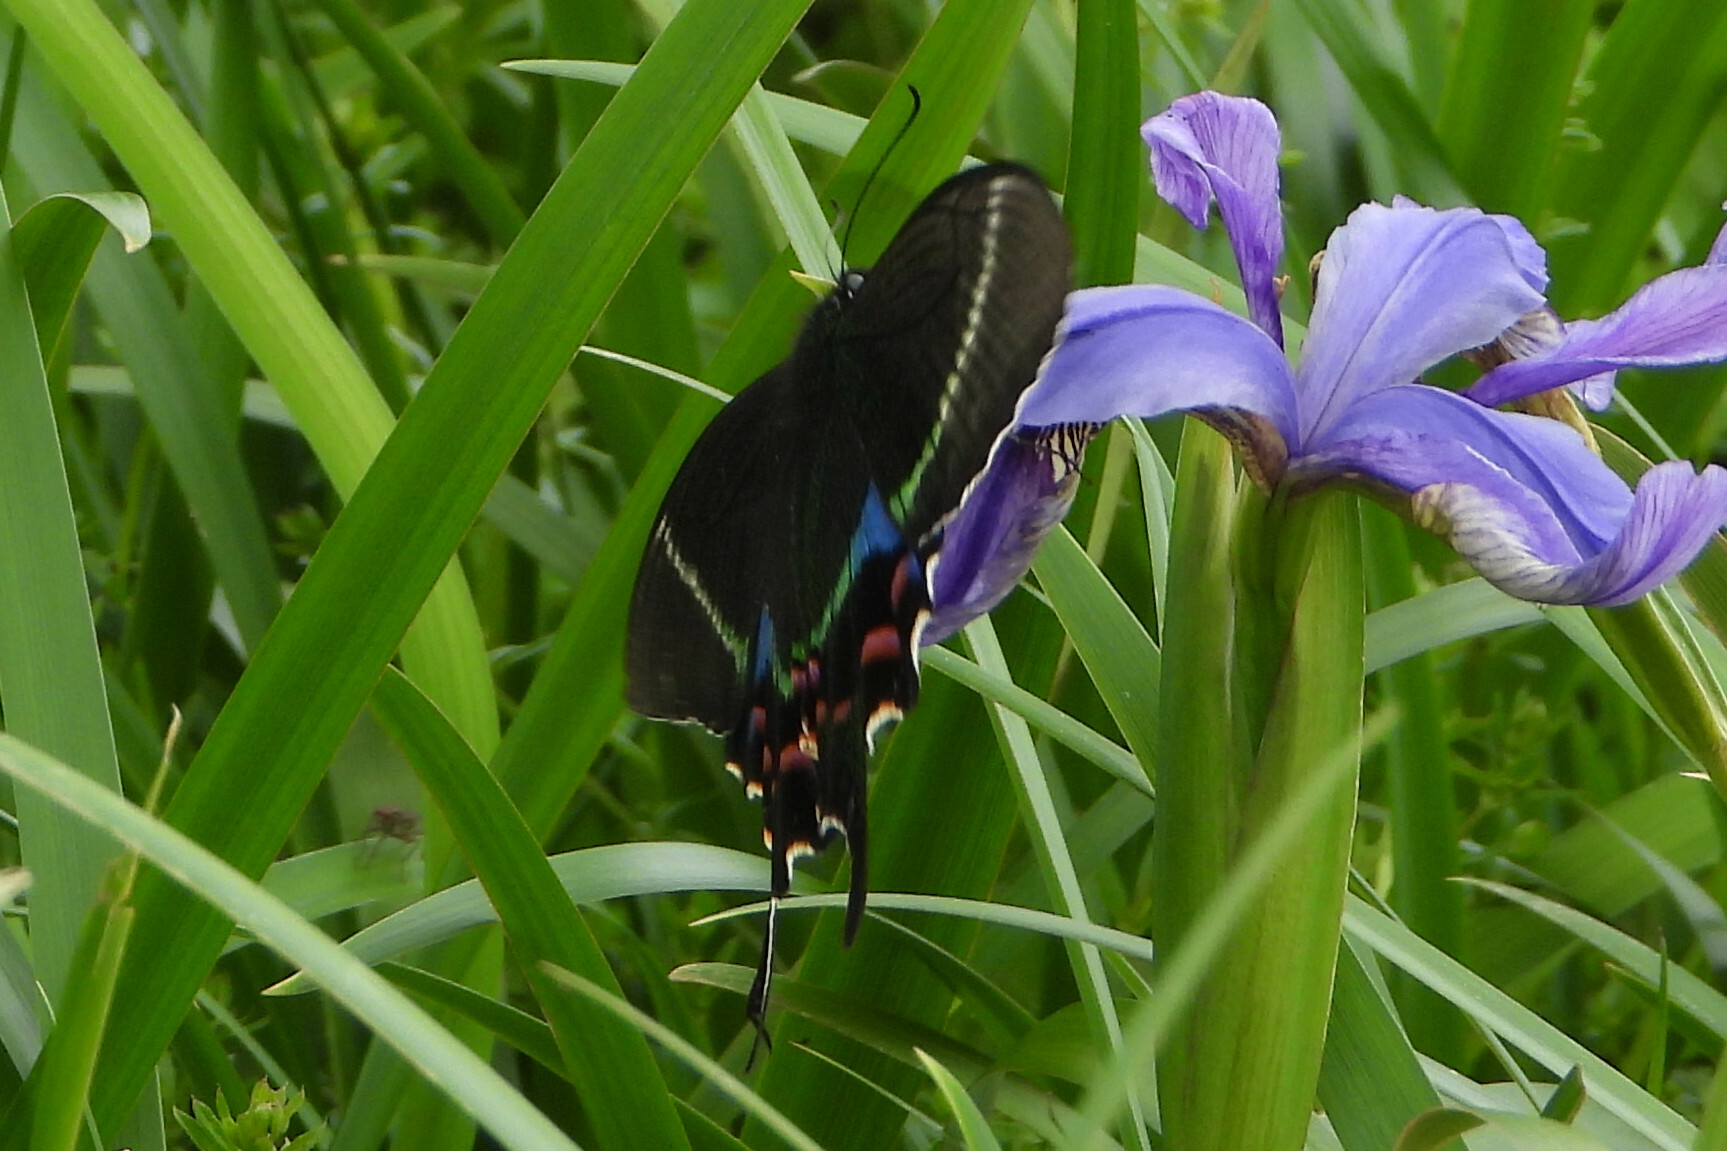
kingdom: Animalia
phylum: Arthropoda
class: Insecta
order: Lepidoptera
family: Papilionidae
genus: Papilio
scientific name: Papilio krishna
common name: Krishna peacock
